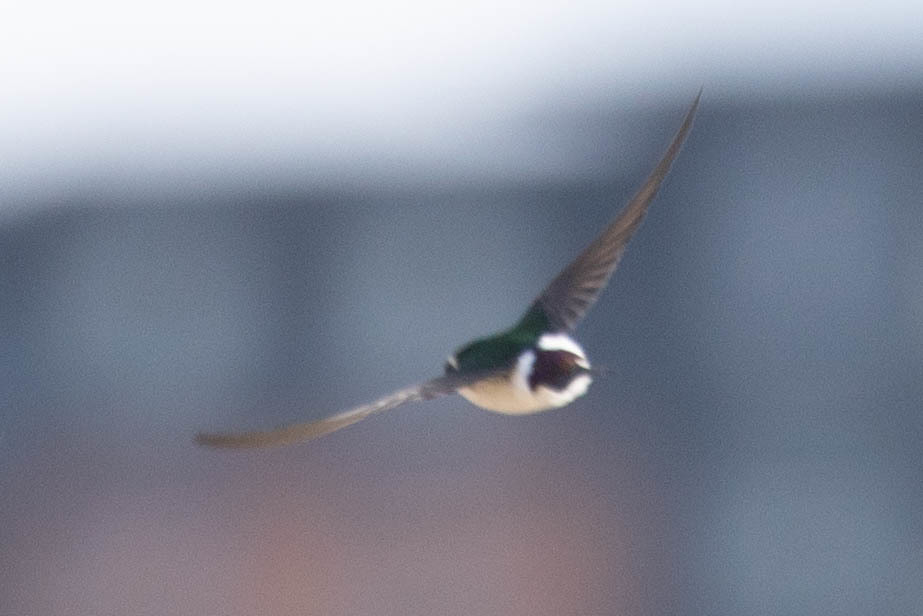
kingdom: Animalia
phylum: Chordata
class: Aves
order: Passeriformes
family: Hirundinidae
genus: Tachycineta
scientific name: Tachycineta thalassina
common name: Violet-green swallow
